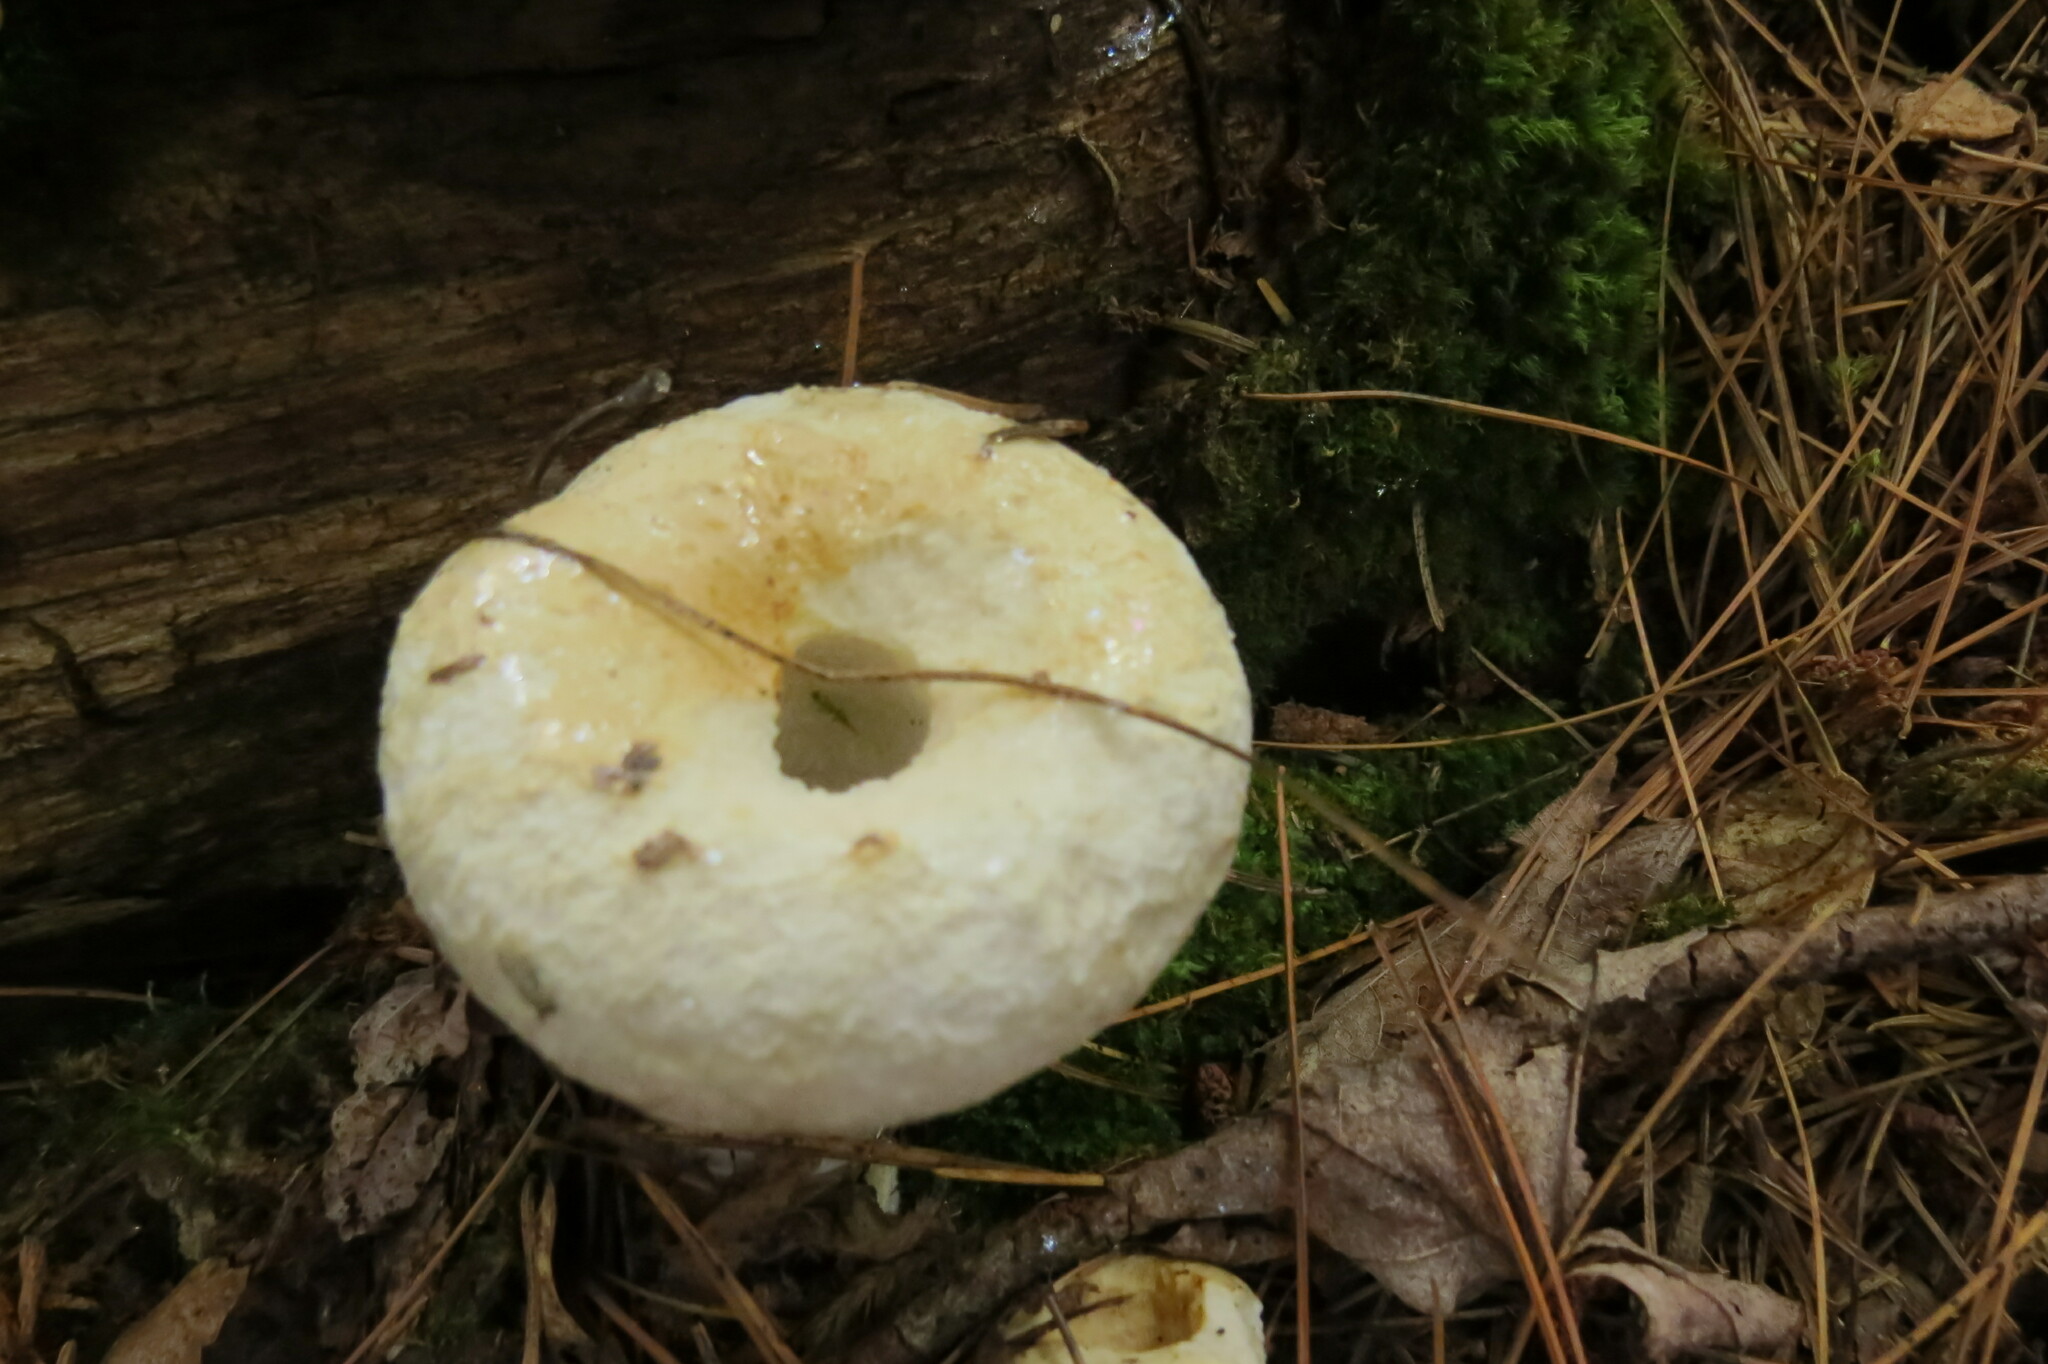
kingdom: Fungi
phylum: Basidiomycota
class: Agaricomycetes
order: Russulales
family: Russulaceae
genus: Lactifluus
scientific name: Lactifluus
